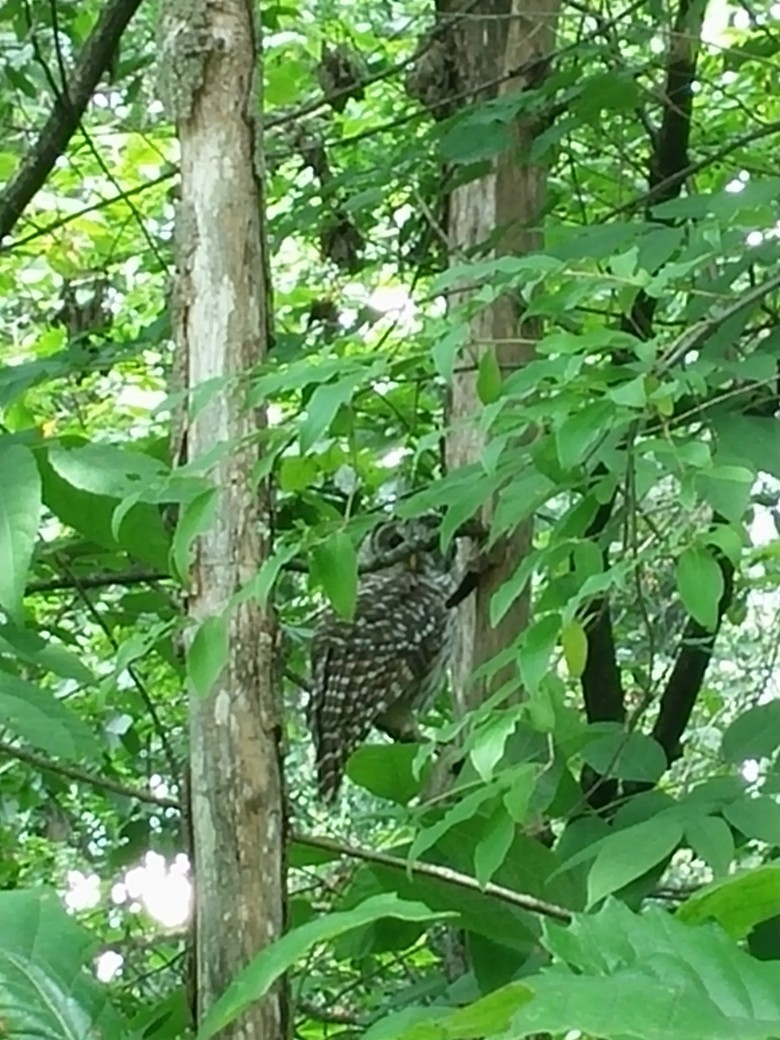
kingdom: Animalia
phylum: Chordata
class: Aves
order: Strigiformes
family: Strigidae
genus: Strix
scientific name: Strix varia
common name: Barred owl
